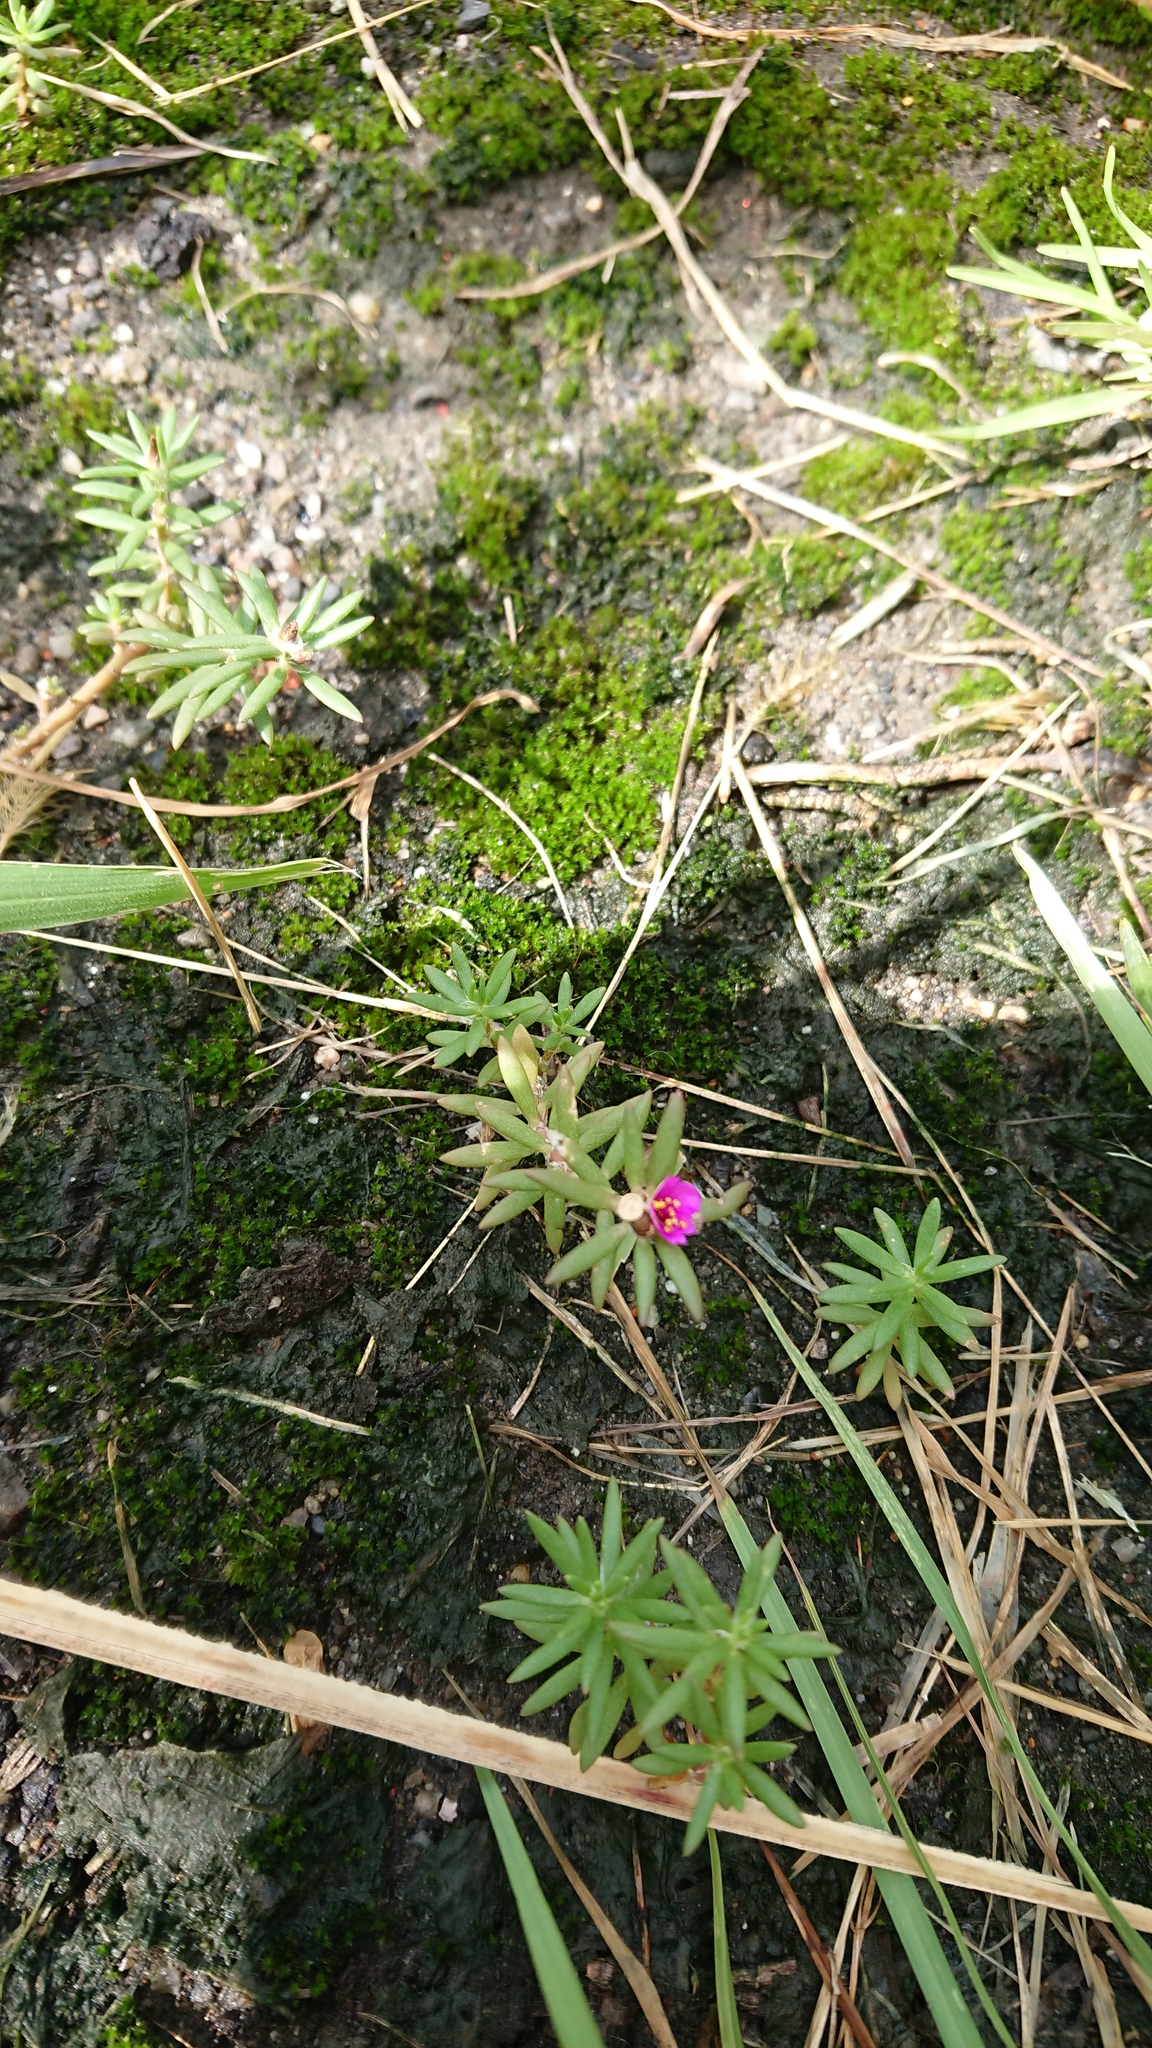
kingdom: Plantae
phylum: Tracheophyta
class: Magnoliopsida
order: Caryophyllales
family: Portulacaceae
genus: Portulaca
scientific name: Portulaca pilosa
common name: Kiss me quick
